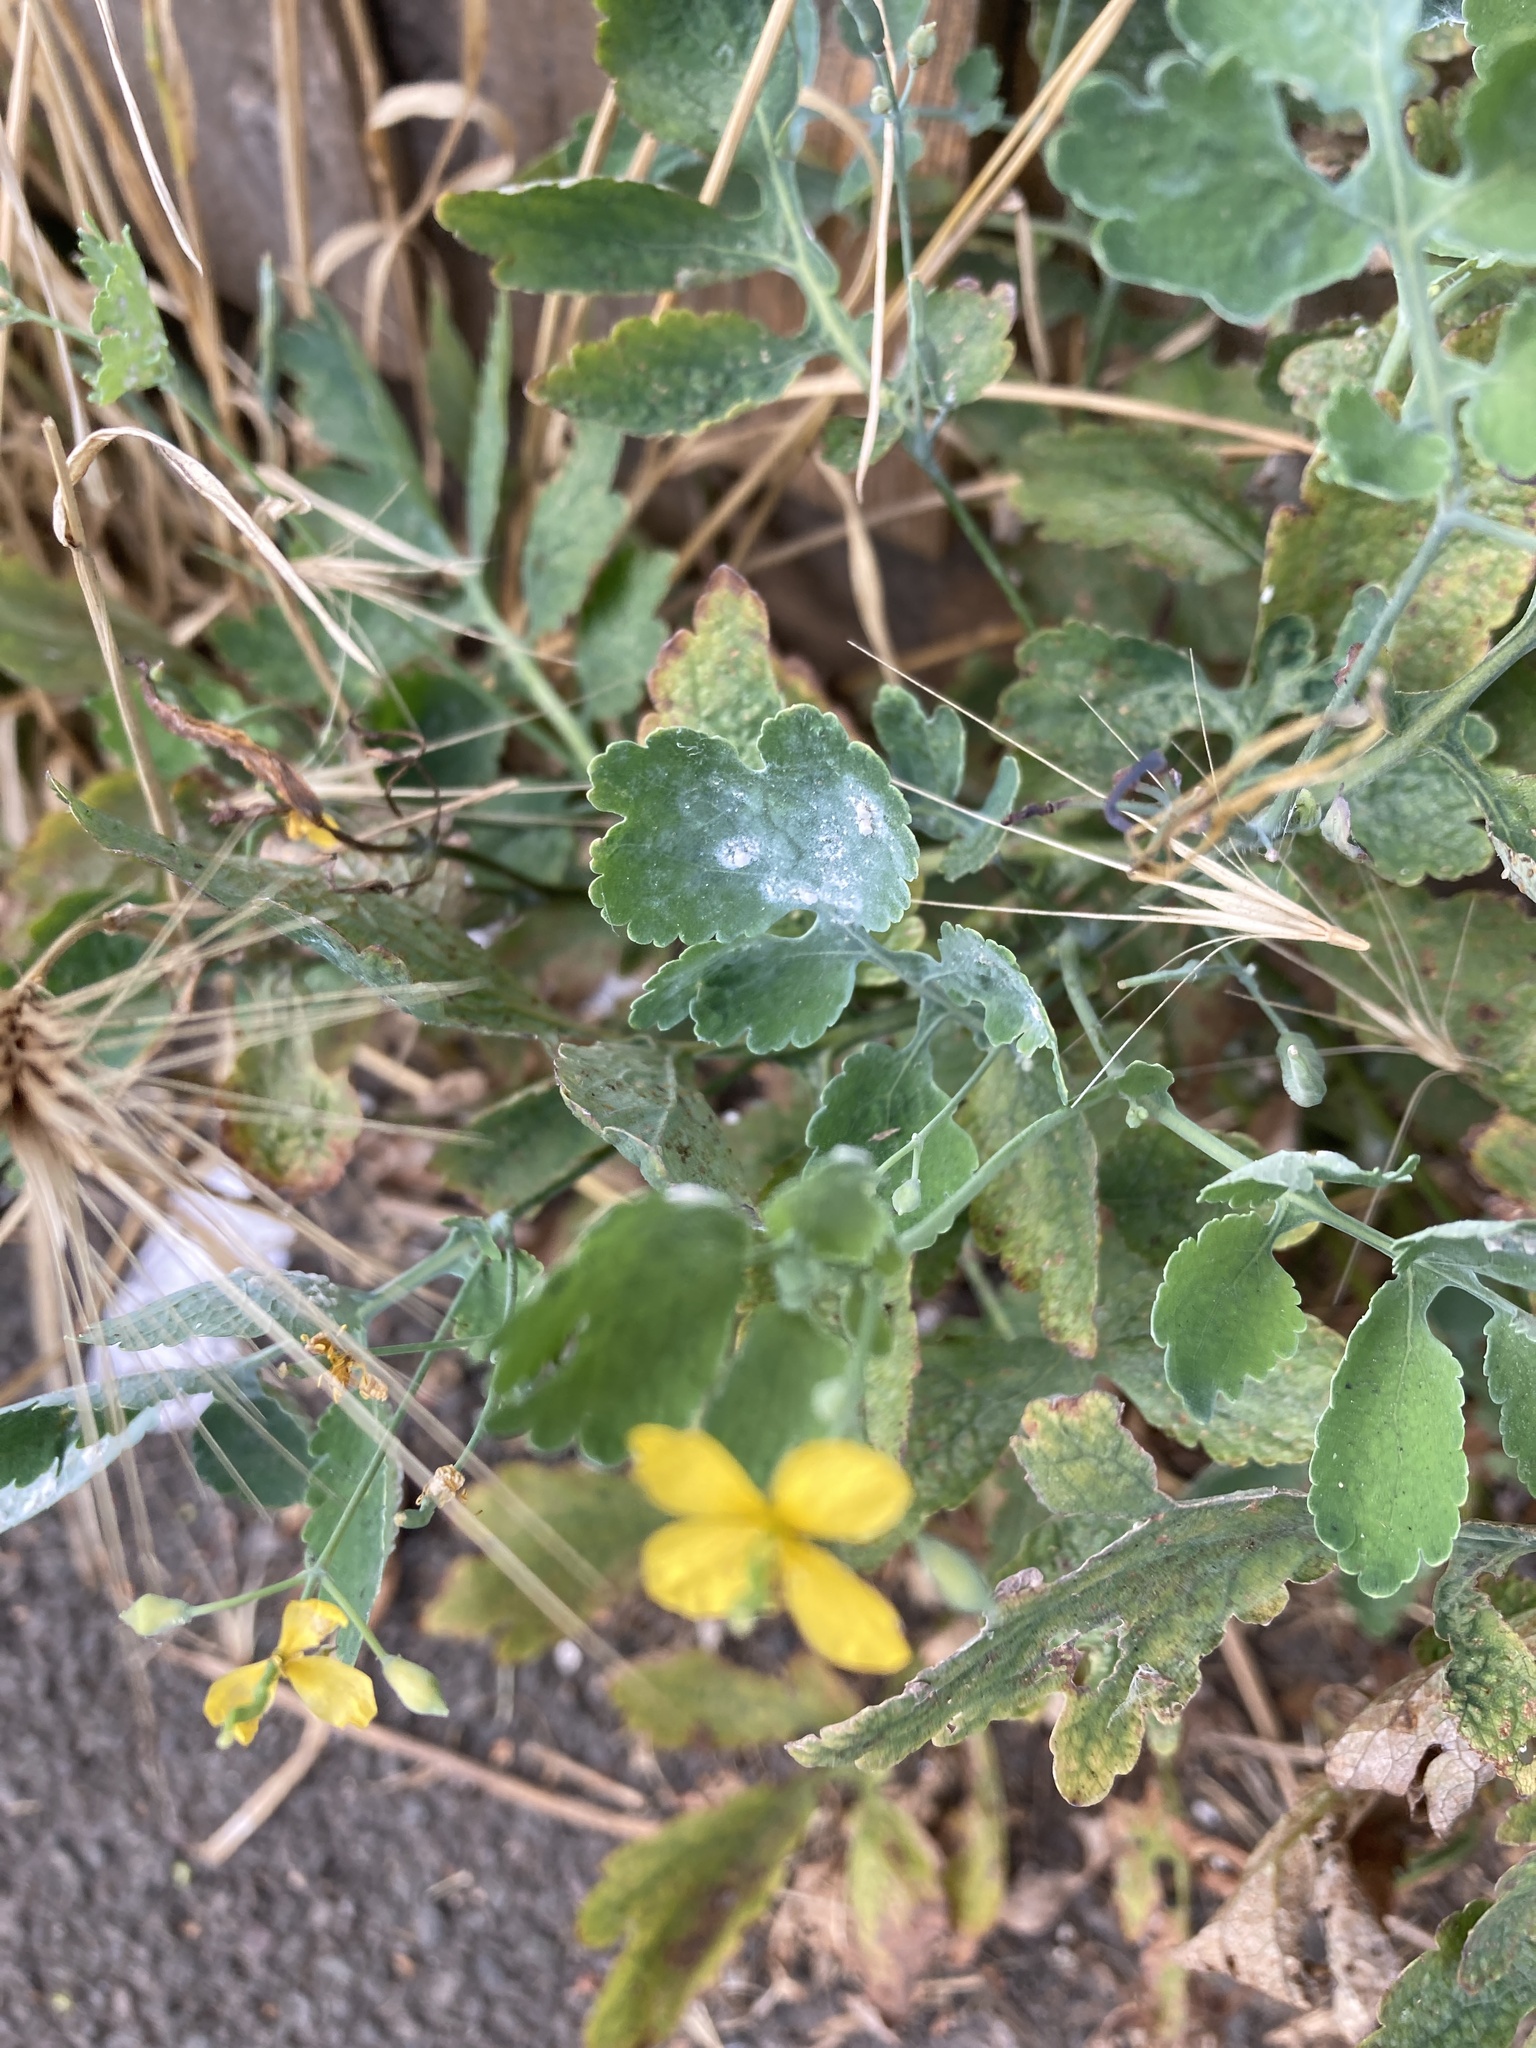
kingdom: Fungi
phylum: Ascomycota
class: Leotiomycetes
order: Helotiales
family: Erysiphaceae
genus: Erysiphe
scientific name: Erysiphe macleayae
